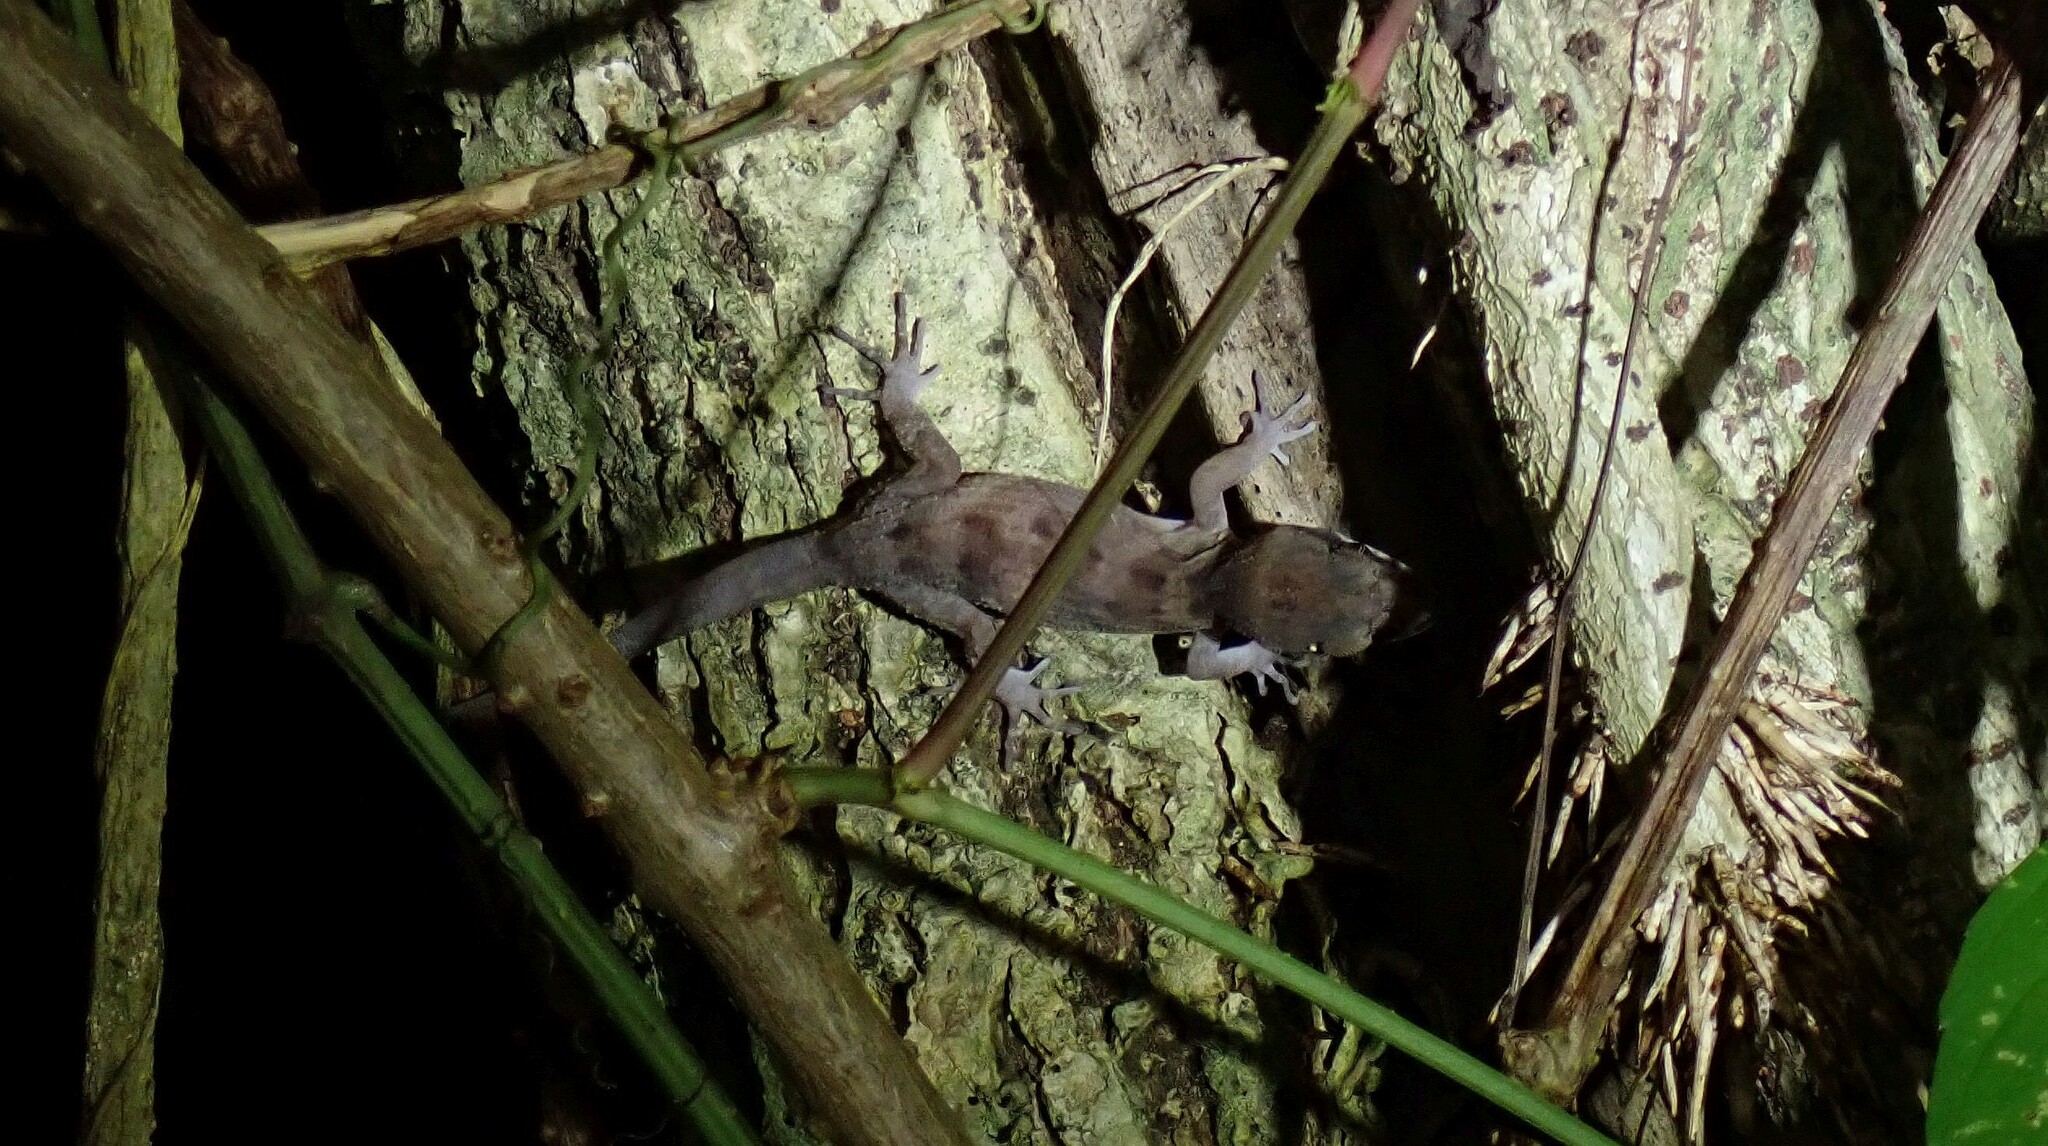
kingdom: Animalia
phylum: Chordata
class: Squamata
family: Gekkonidae
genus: Nactus
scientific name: Nactus pelagicus
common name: Pelagic gecko
